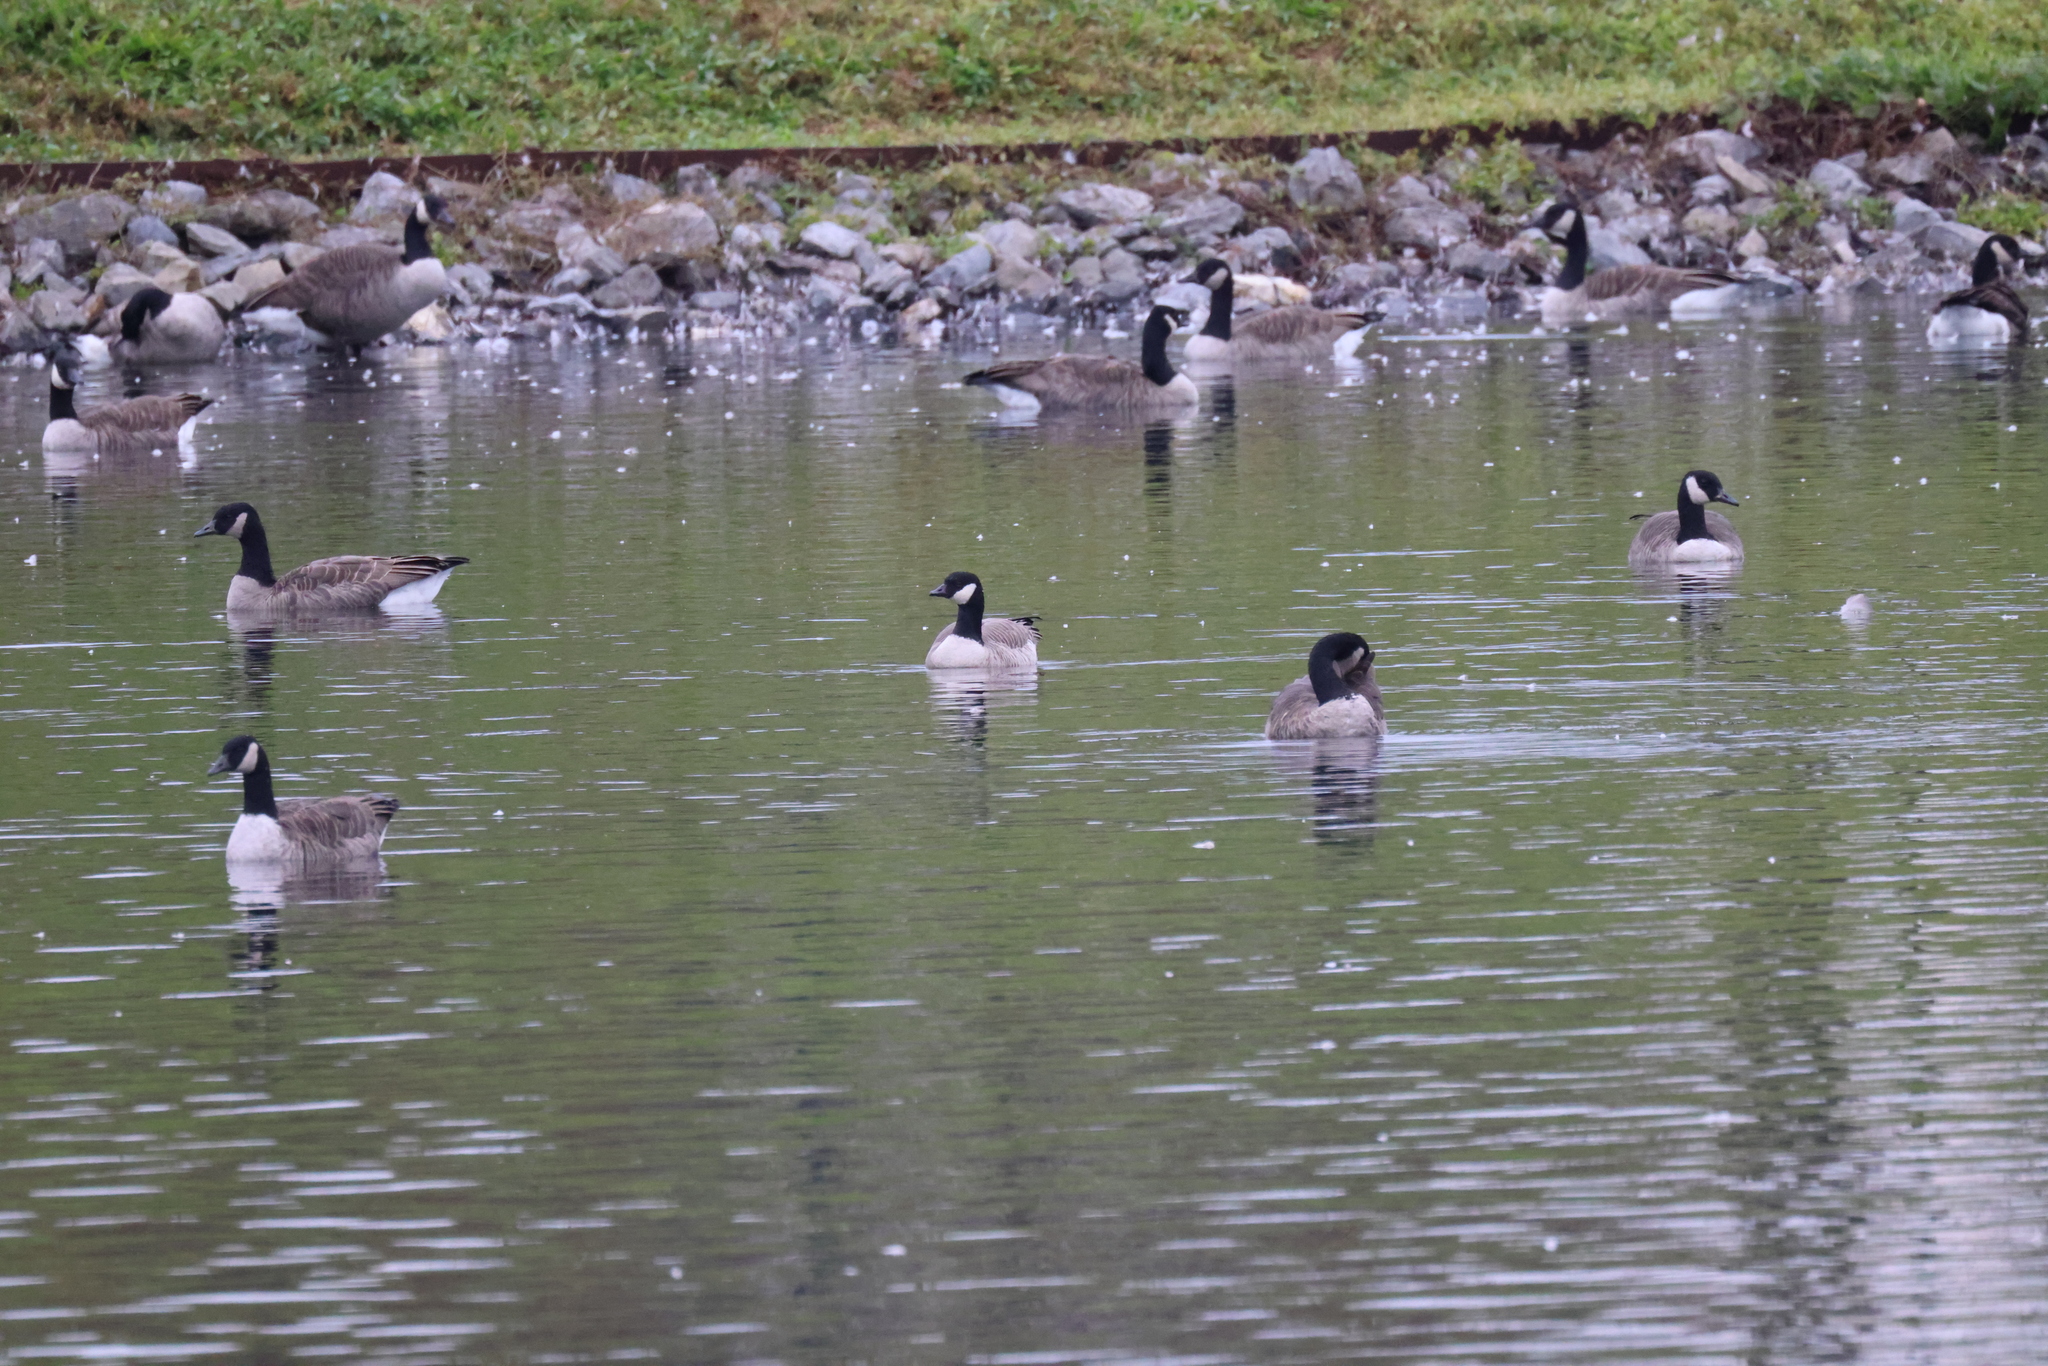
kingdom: Animalia
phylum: Chordata
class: Aves
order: Anseriformes
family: Anatidae
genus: Branta
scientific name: Branta hutchinsii
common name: Cackling goose
